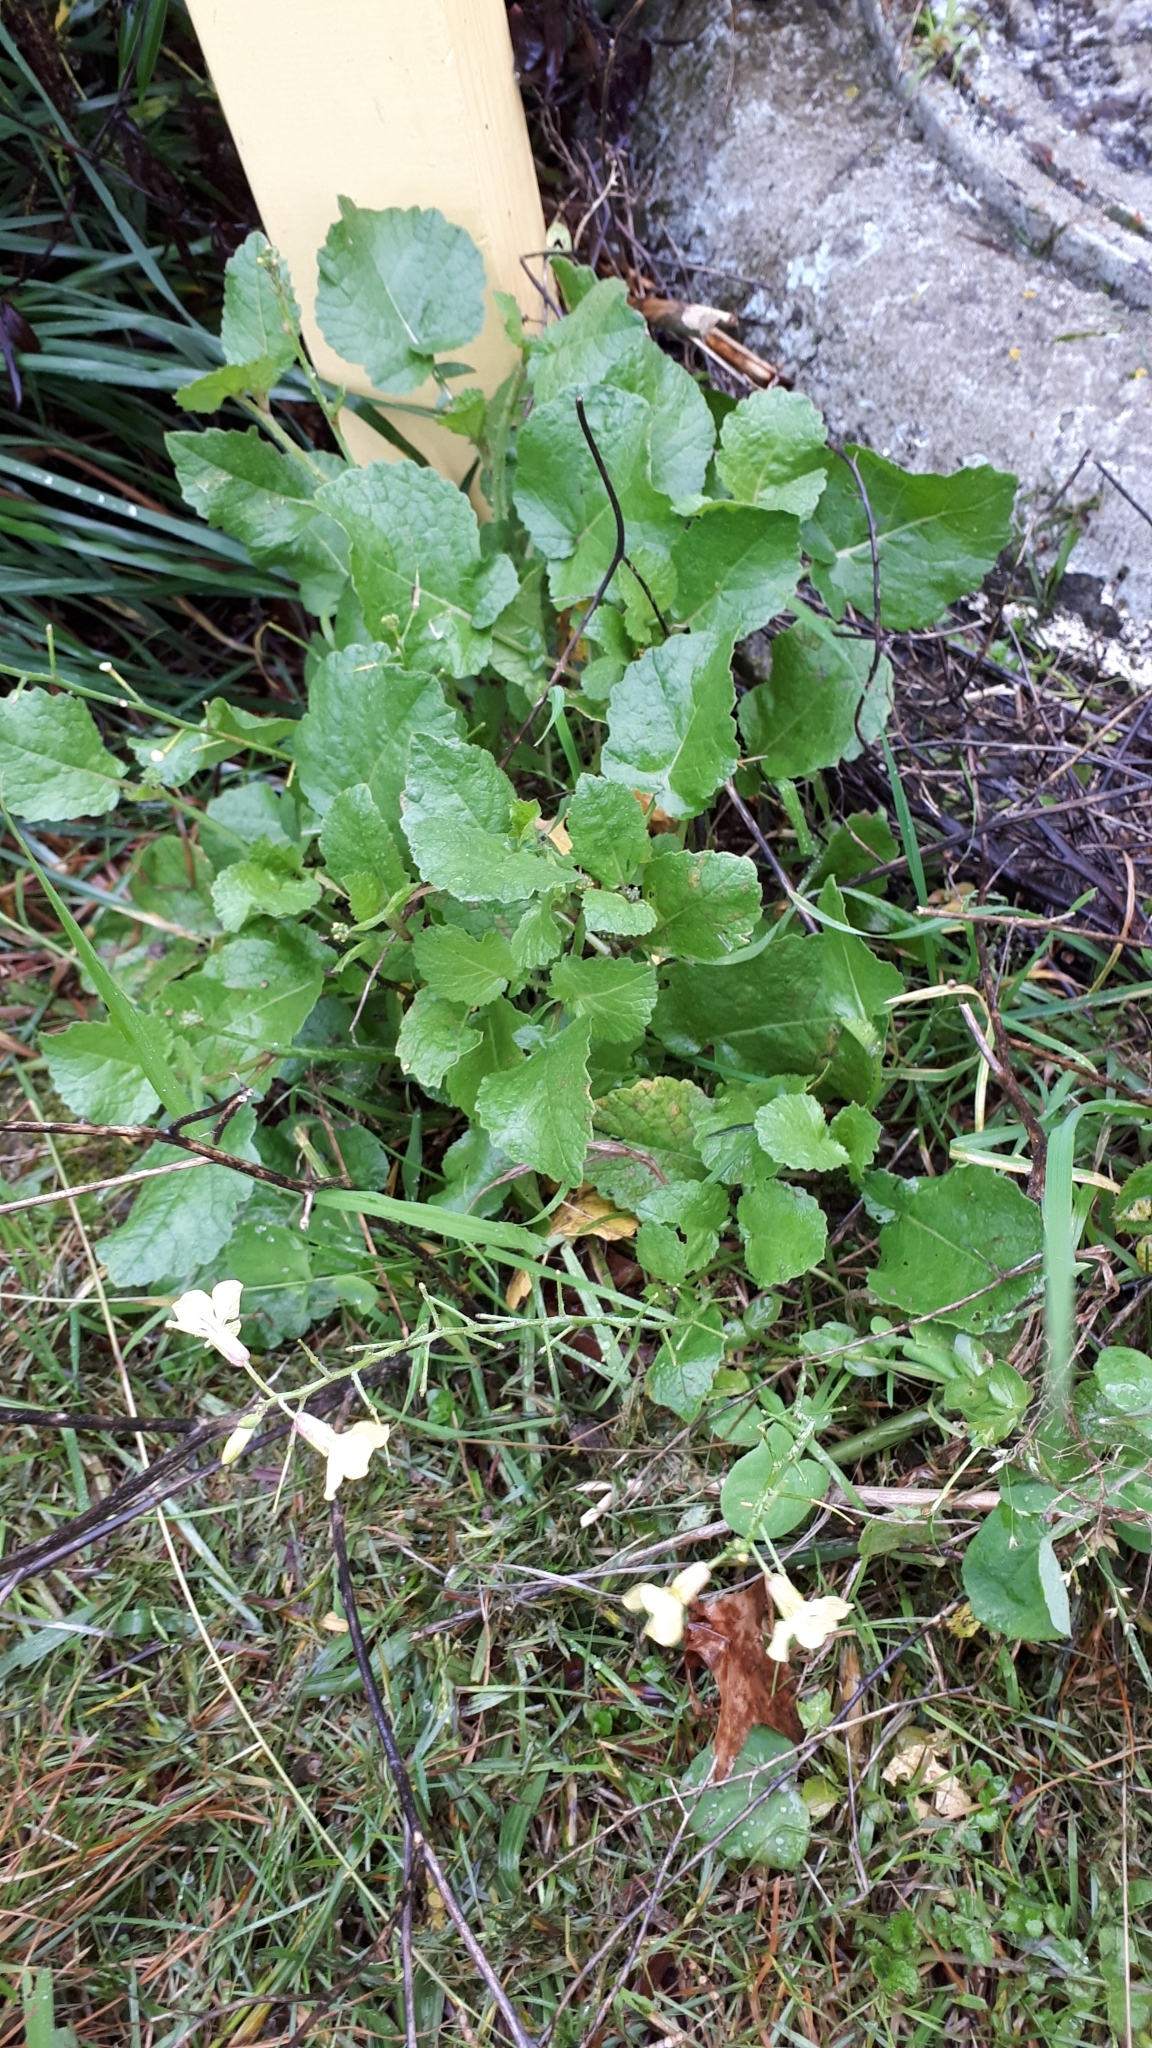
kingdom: Plantae
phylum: Tracheophyta
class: Magnoliopsida
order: Brassicales
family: Brassicaceae
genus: Raphanus
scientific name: Raphanus raphanistrum
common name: Wild radish
